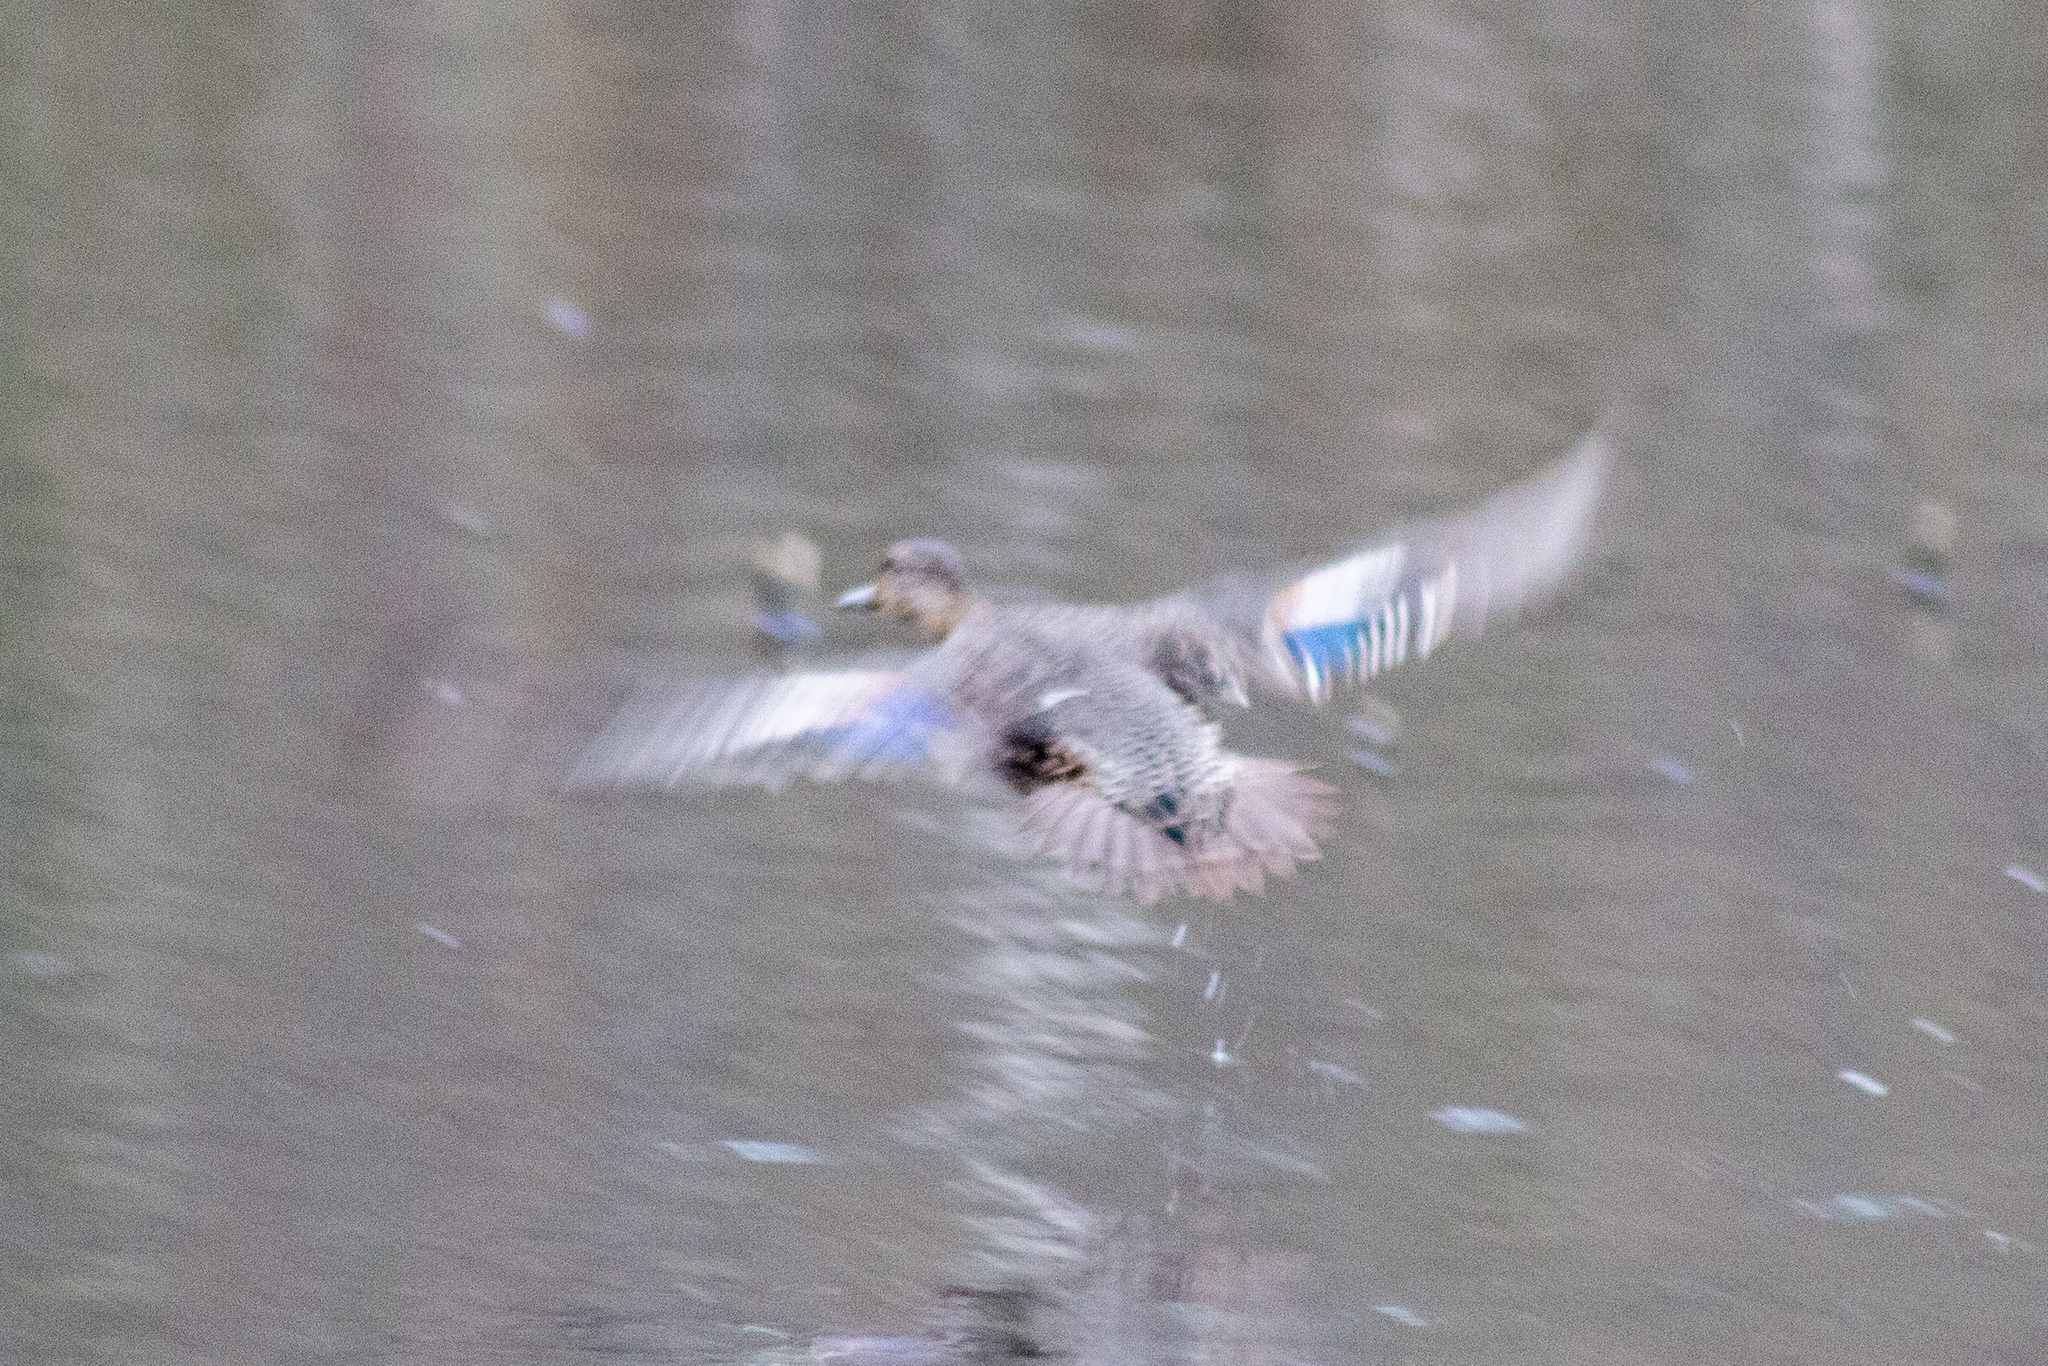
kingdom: Animalia
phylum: Chordata
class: Aves
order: Anseriformes
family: Anatidae
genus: Anas
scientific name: Anas crecca
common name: Eurasian teal
